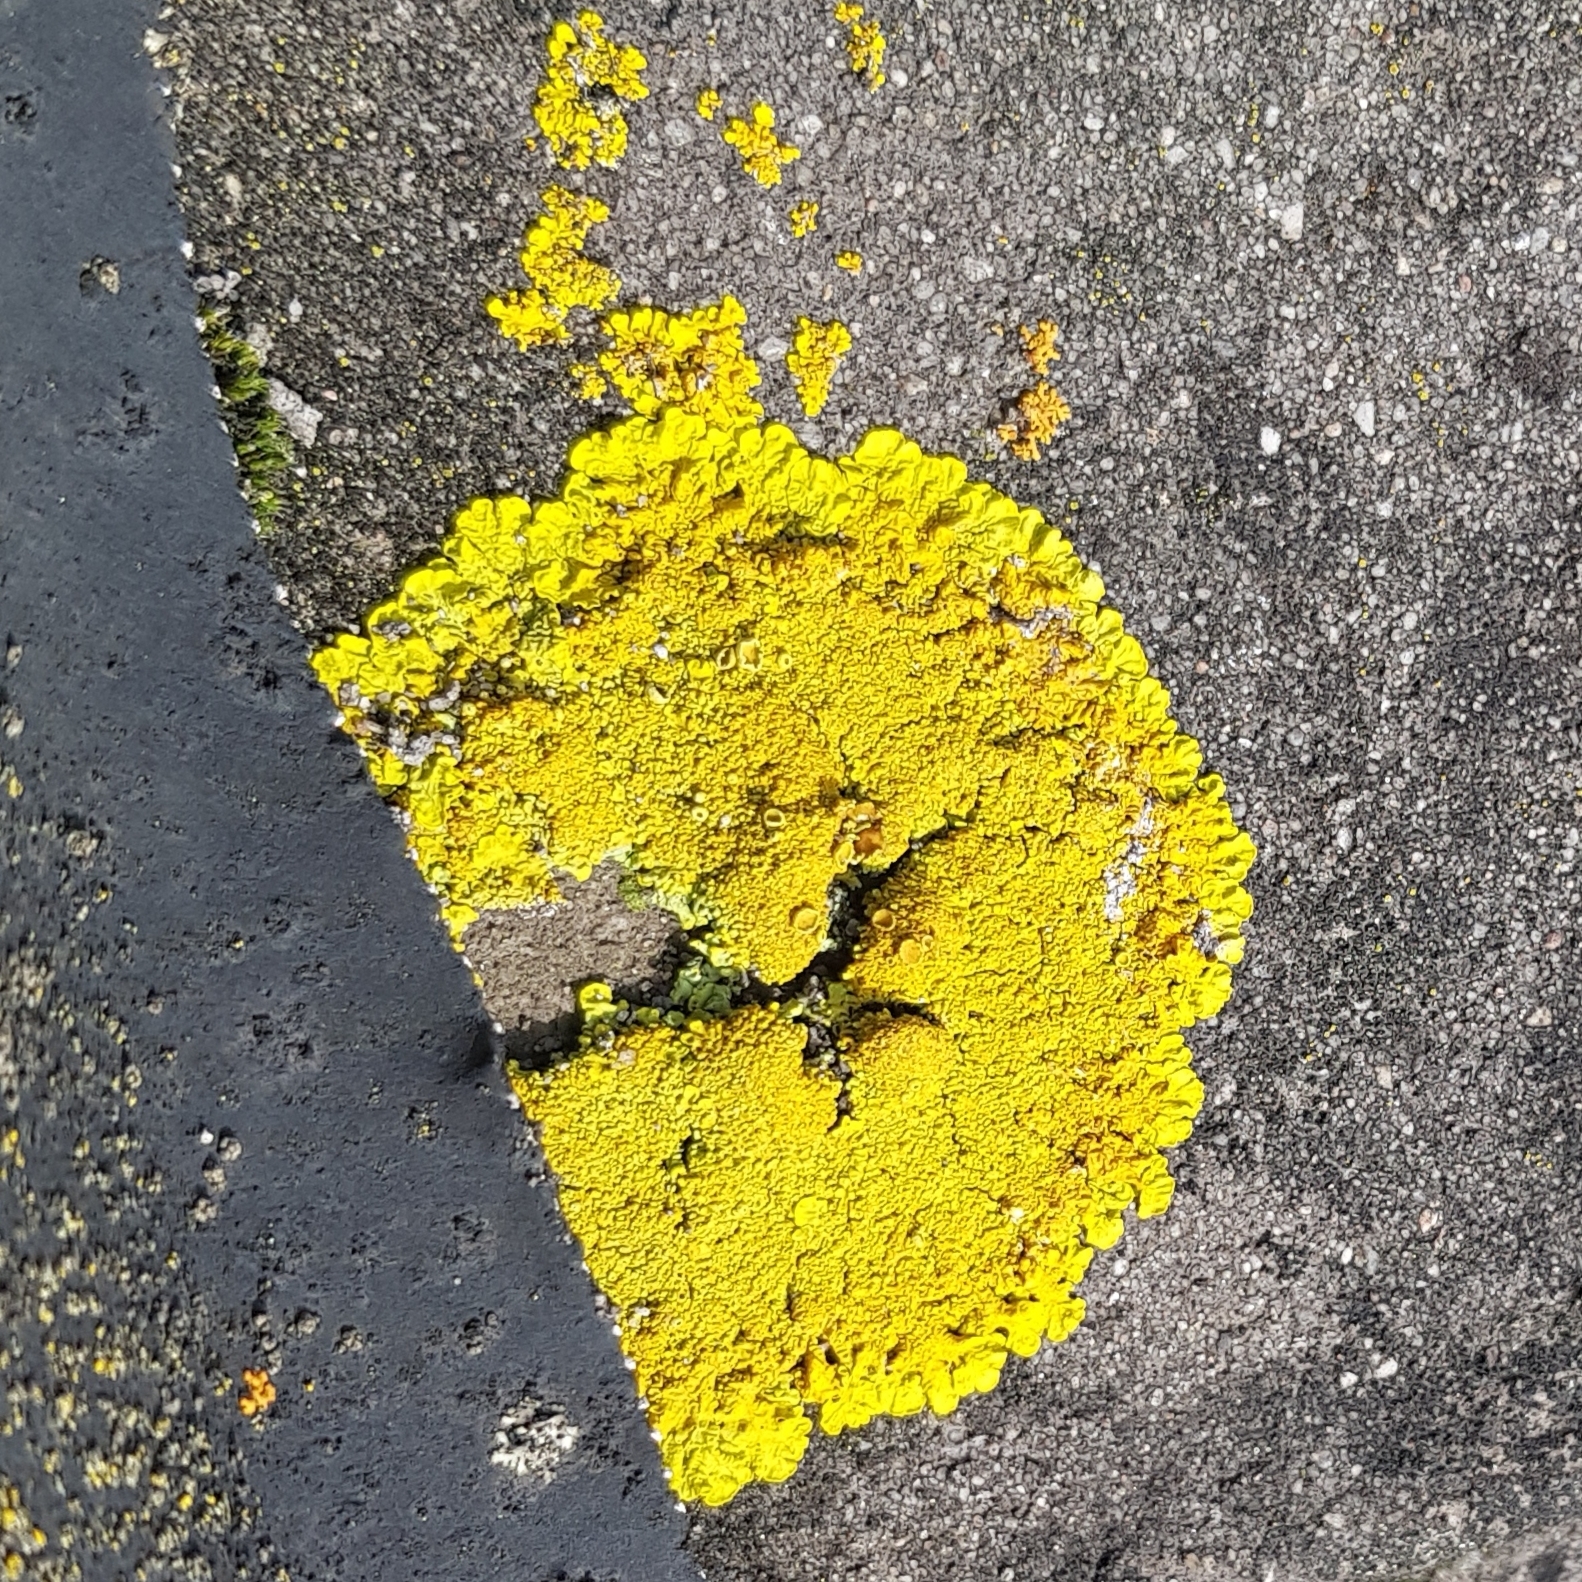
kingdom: Fungi
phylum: Ascomycota
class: Lecanoromycetes
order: Teloschistales
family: Teloschistaceae
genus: Xanthoria
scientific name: Xanthoria calcicola
